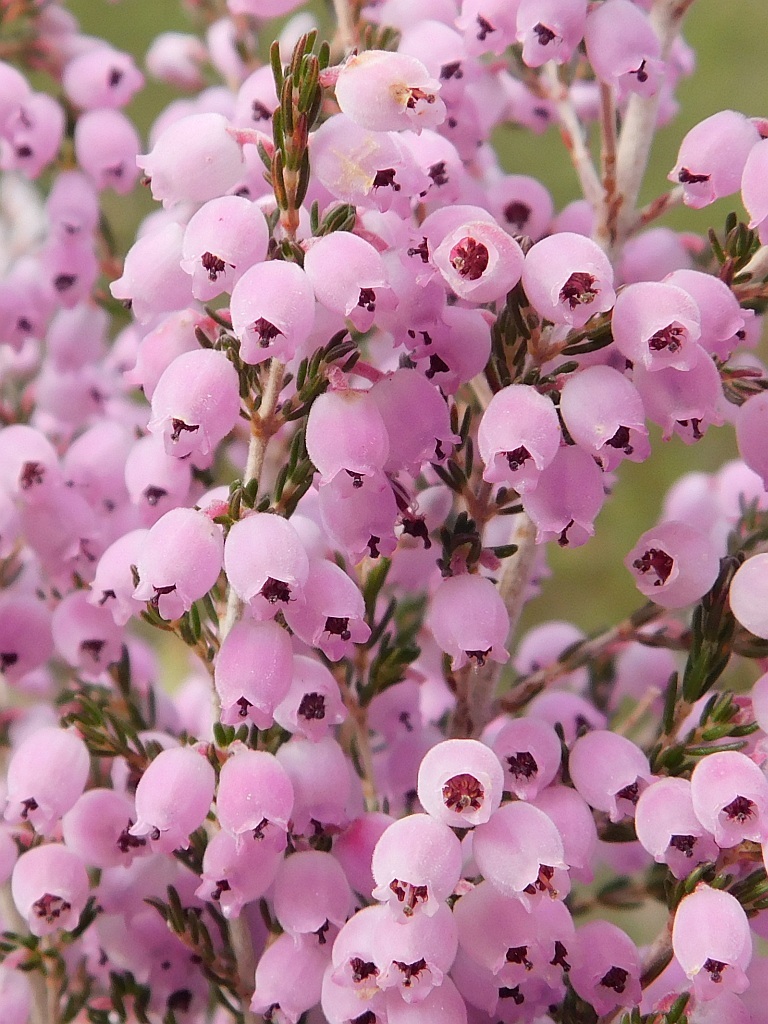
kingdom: Plantae
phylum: Tracheophyta
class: Magnoliopsida
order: Ericales
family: Ericaceae
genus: Erica
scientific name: Erica tomentosa
